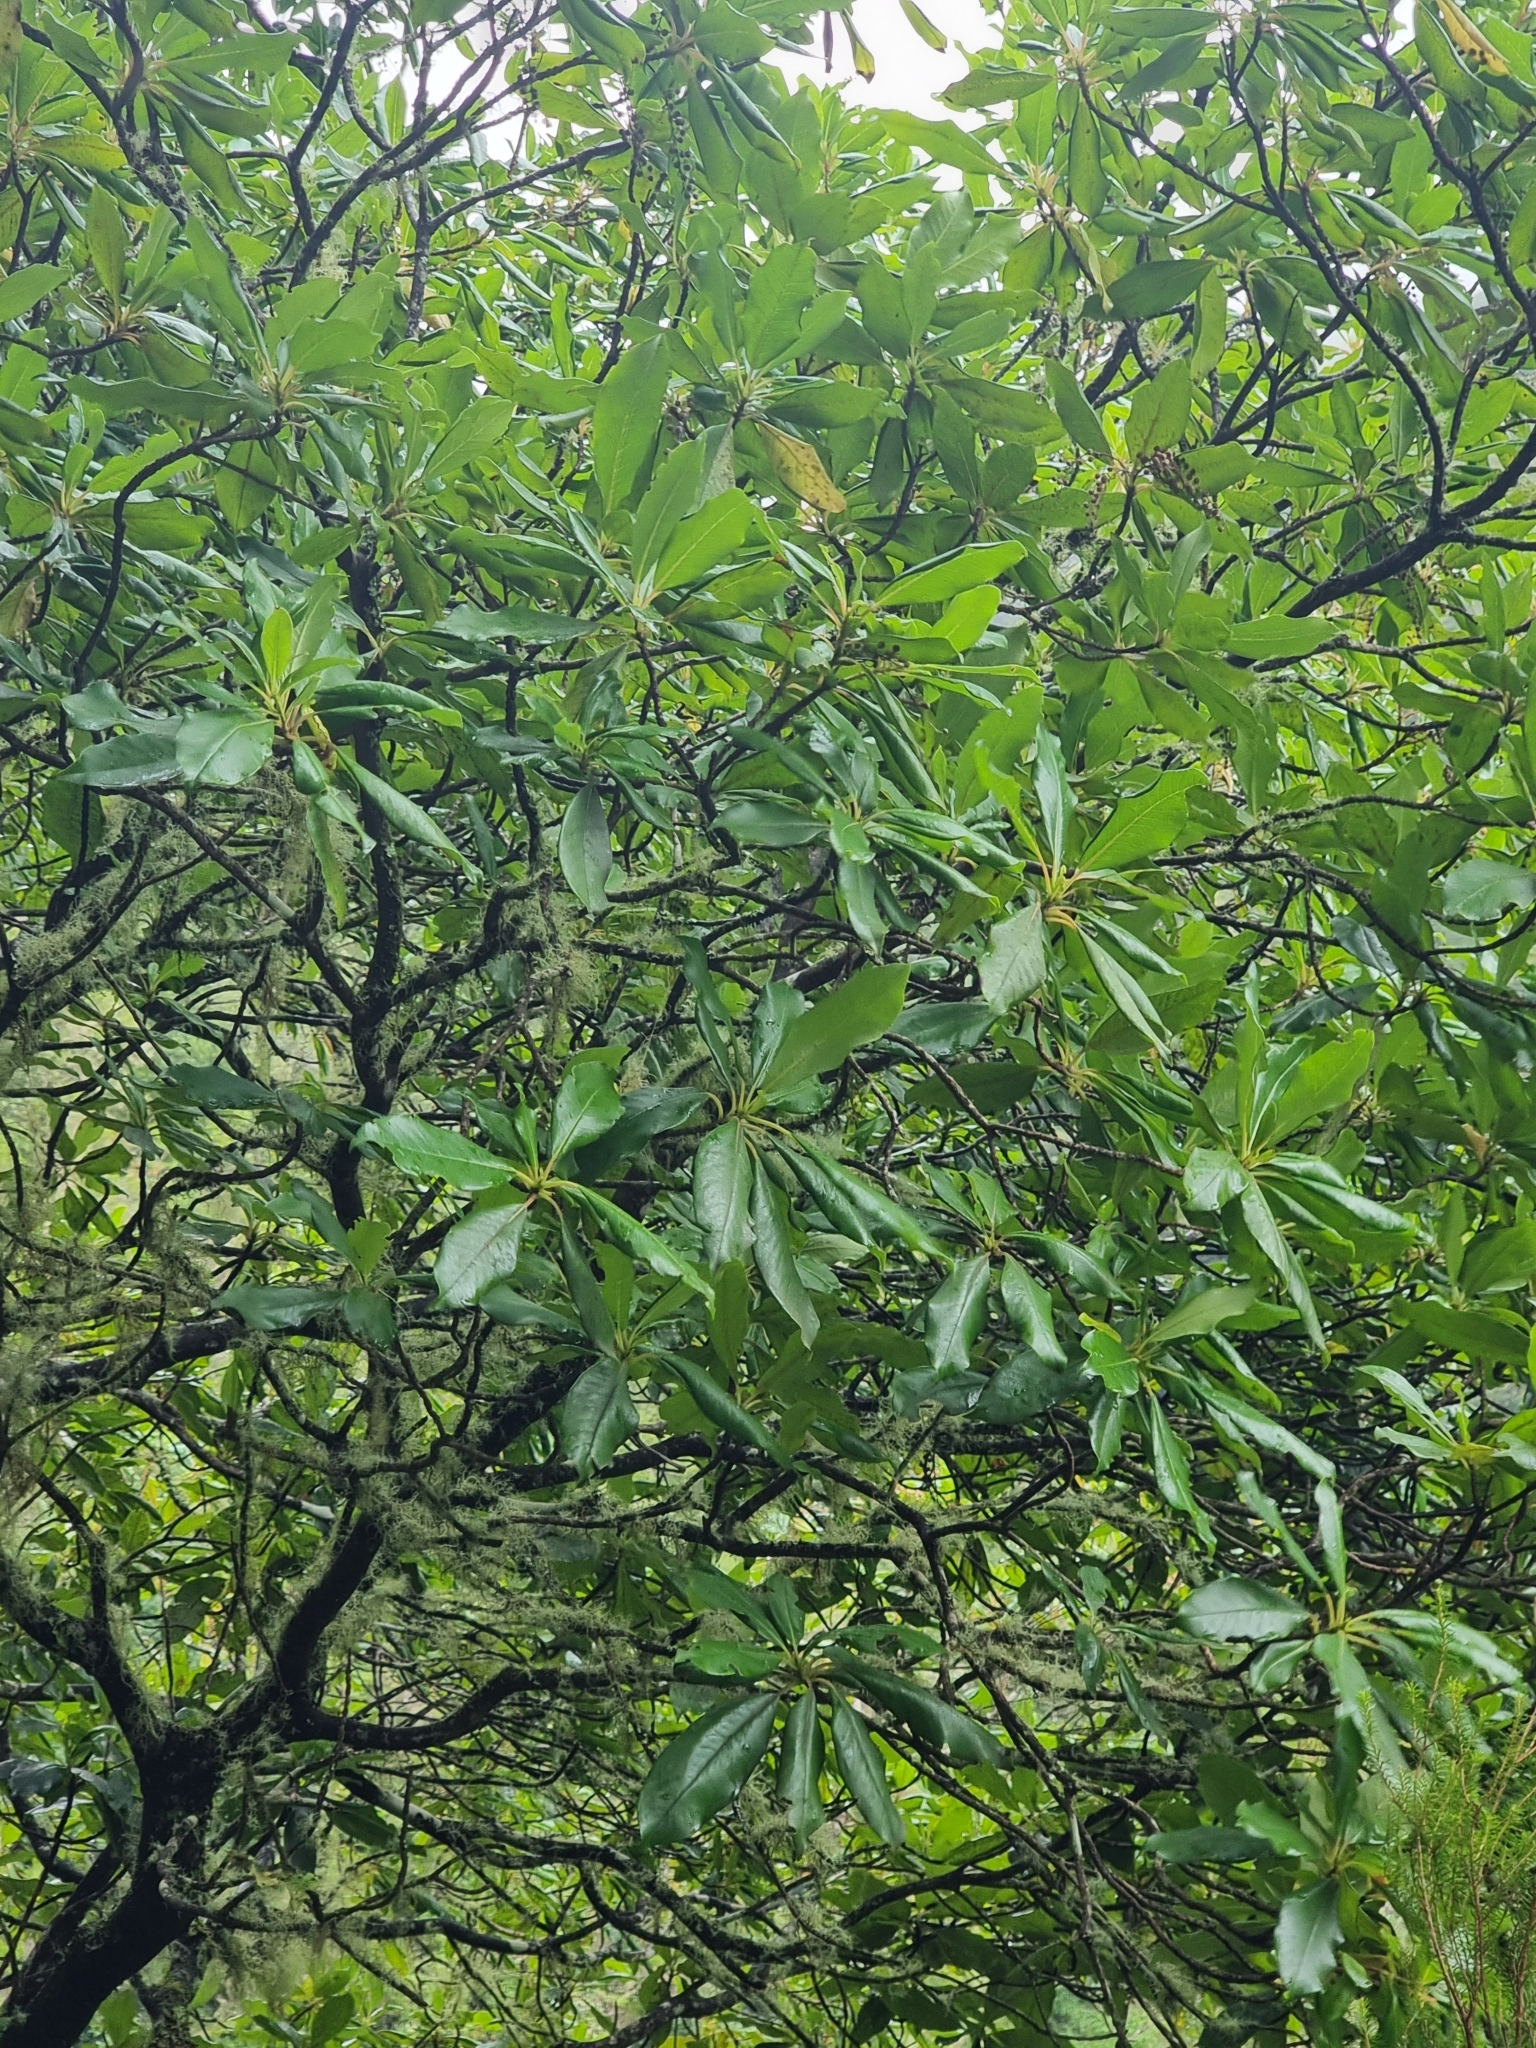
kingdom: Plantae
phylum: Tracheophyta
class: Magnoliopsida
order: Ericales
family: Clethraceae
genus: Clethra
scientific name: Clethra arborea
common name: Lily-of-the-valley-tree
